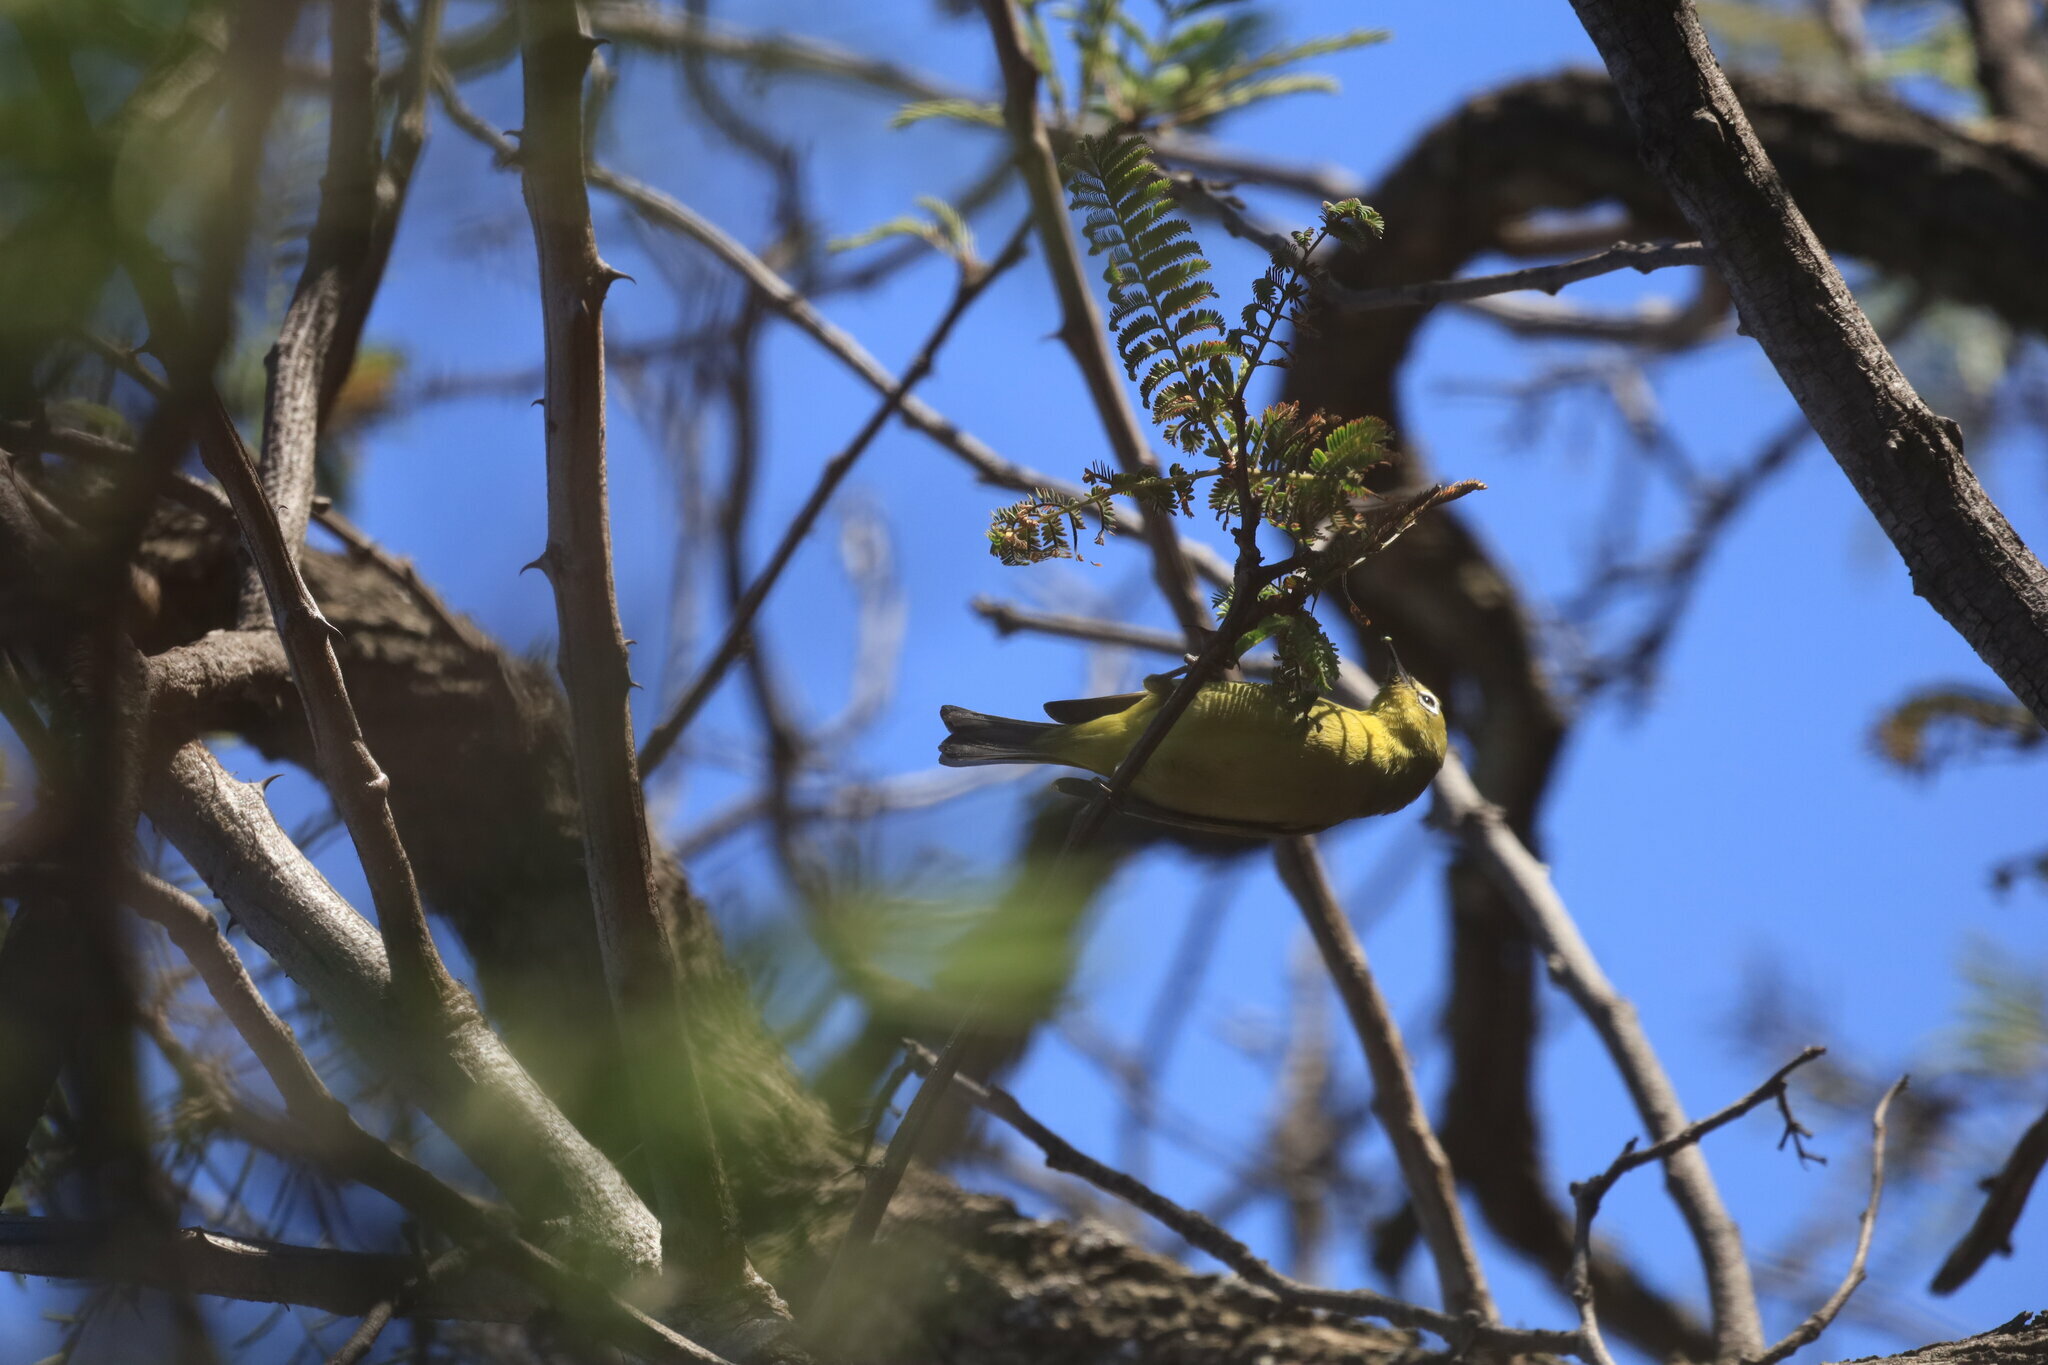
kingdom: Animalia
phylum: Chordata
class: Aves
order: Passeriformes
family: Zosteropidae
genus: Zosterops
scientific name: Zosterops virens
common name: Cape white-eye
